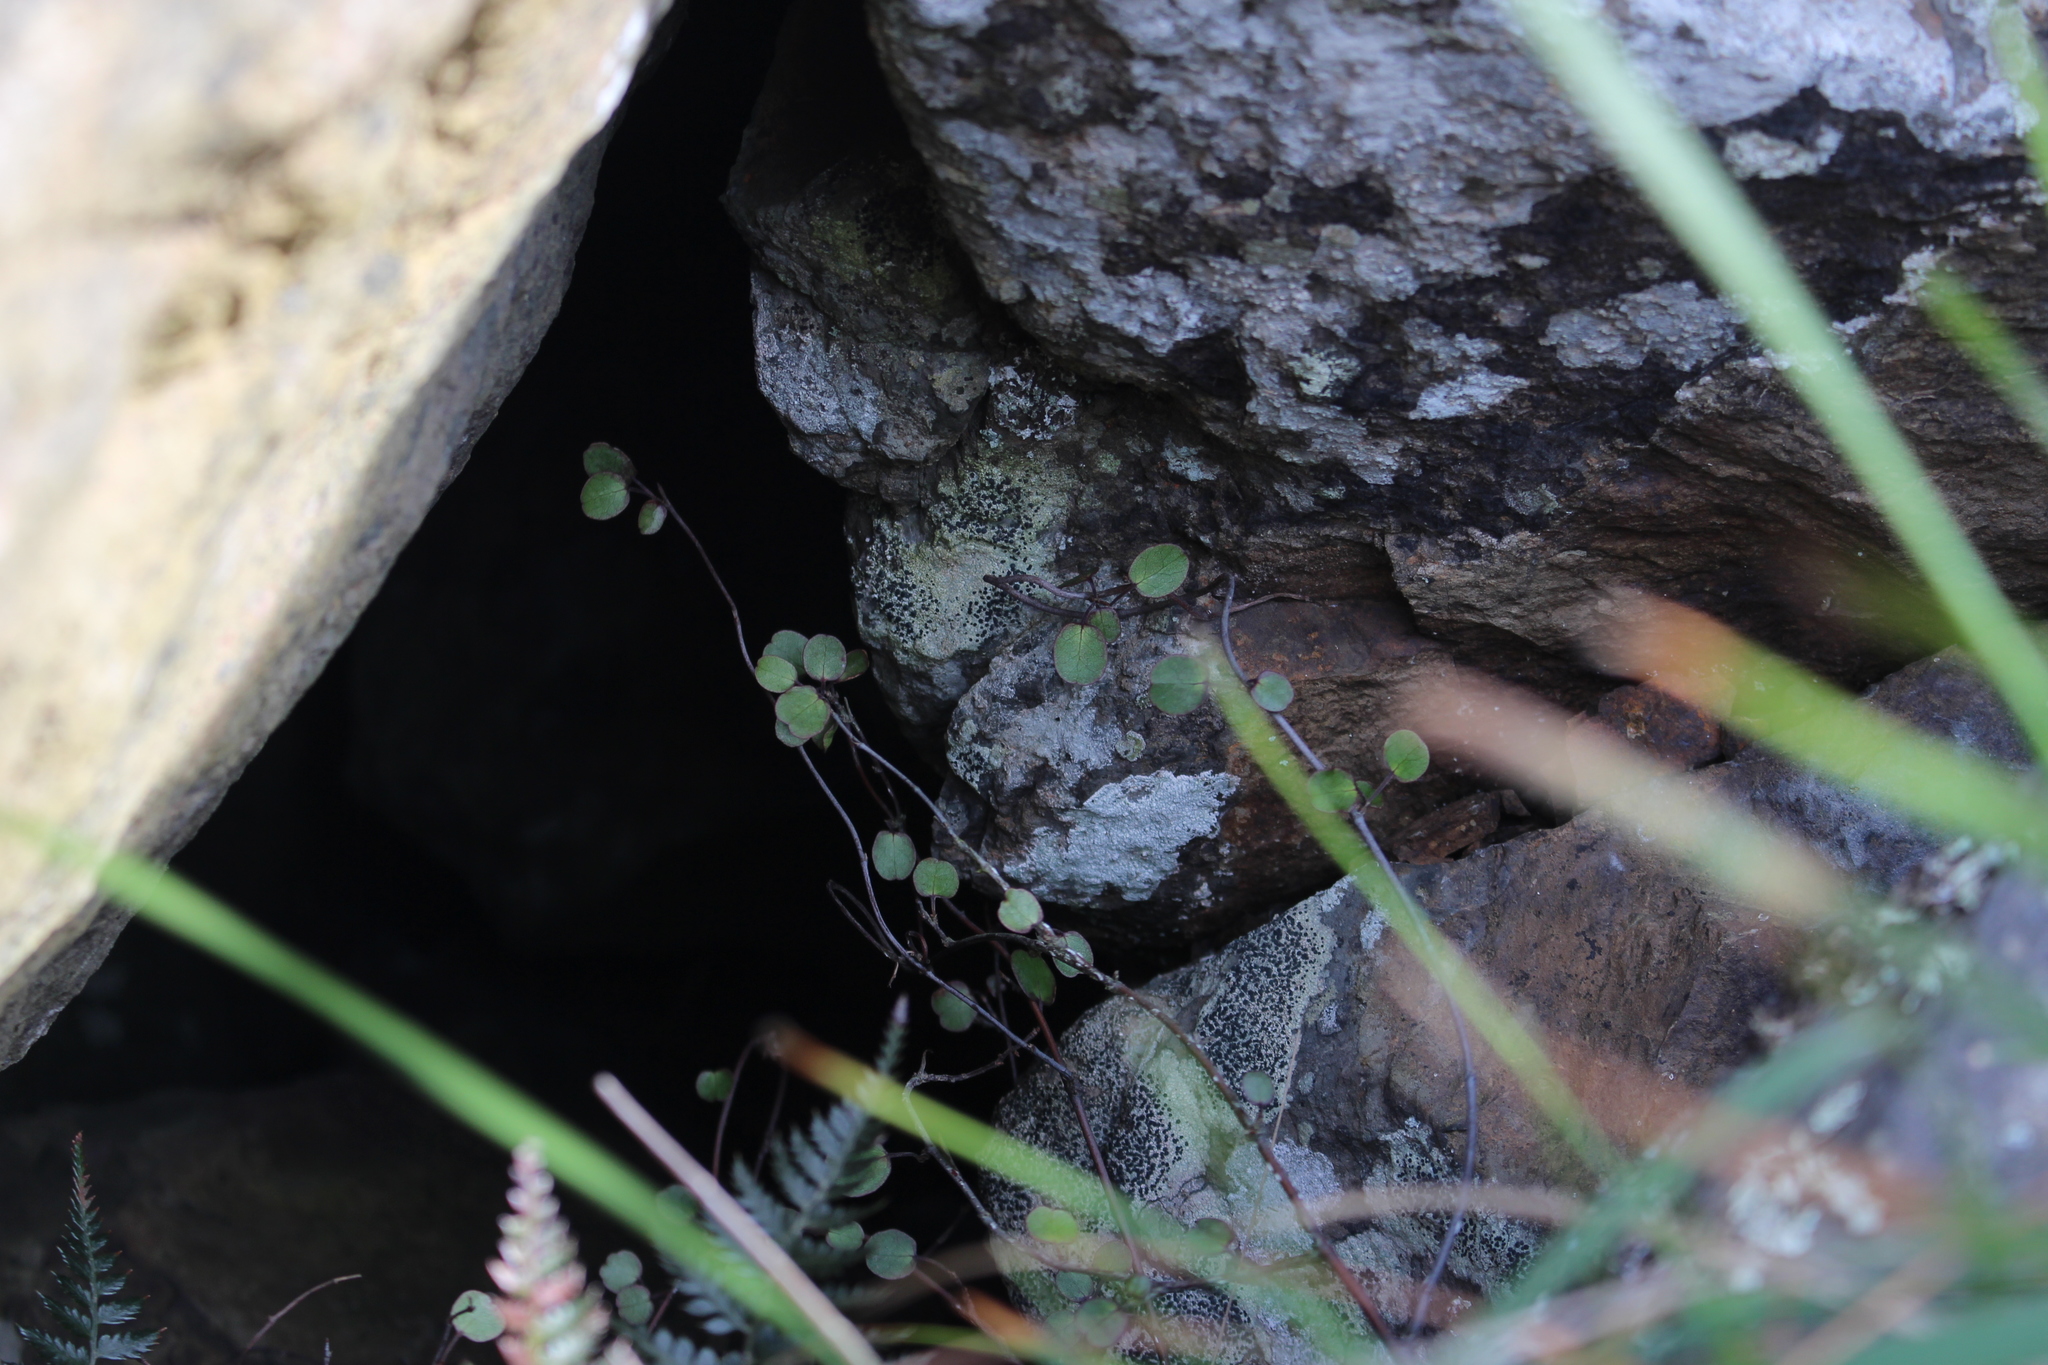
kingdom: Plantae
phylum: Tracheophyta
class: Magnoliopsida
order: Caryophyllales
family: Polygonaceae
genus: Muehlenbeckia
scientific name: Muehlenbeckia complexa
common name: Wireplant
